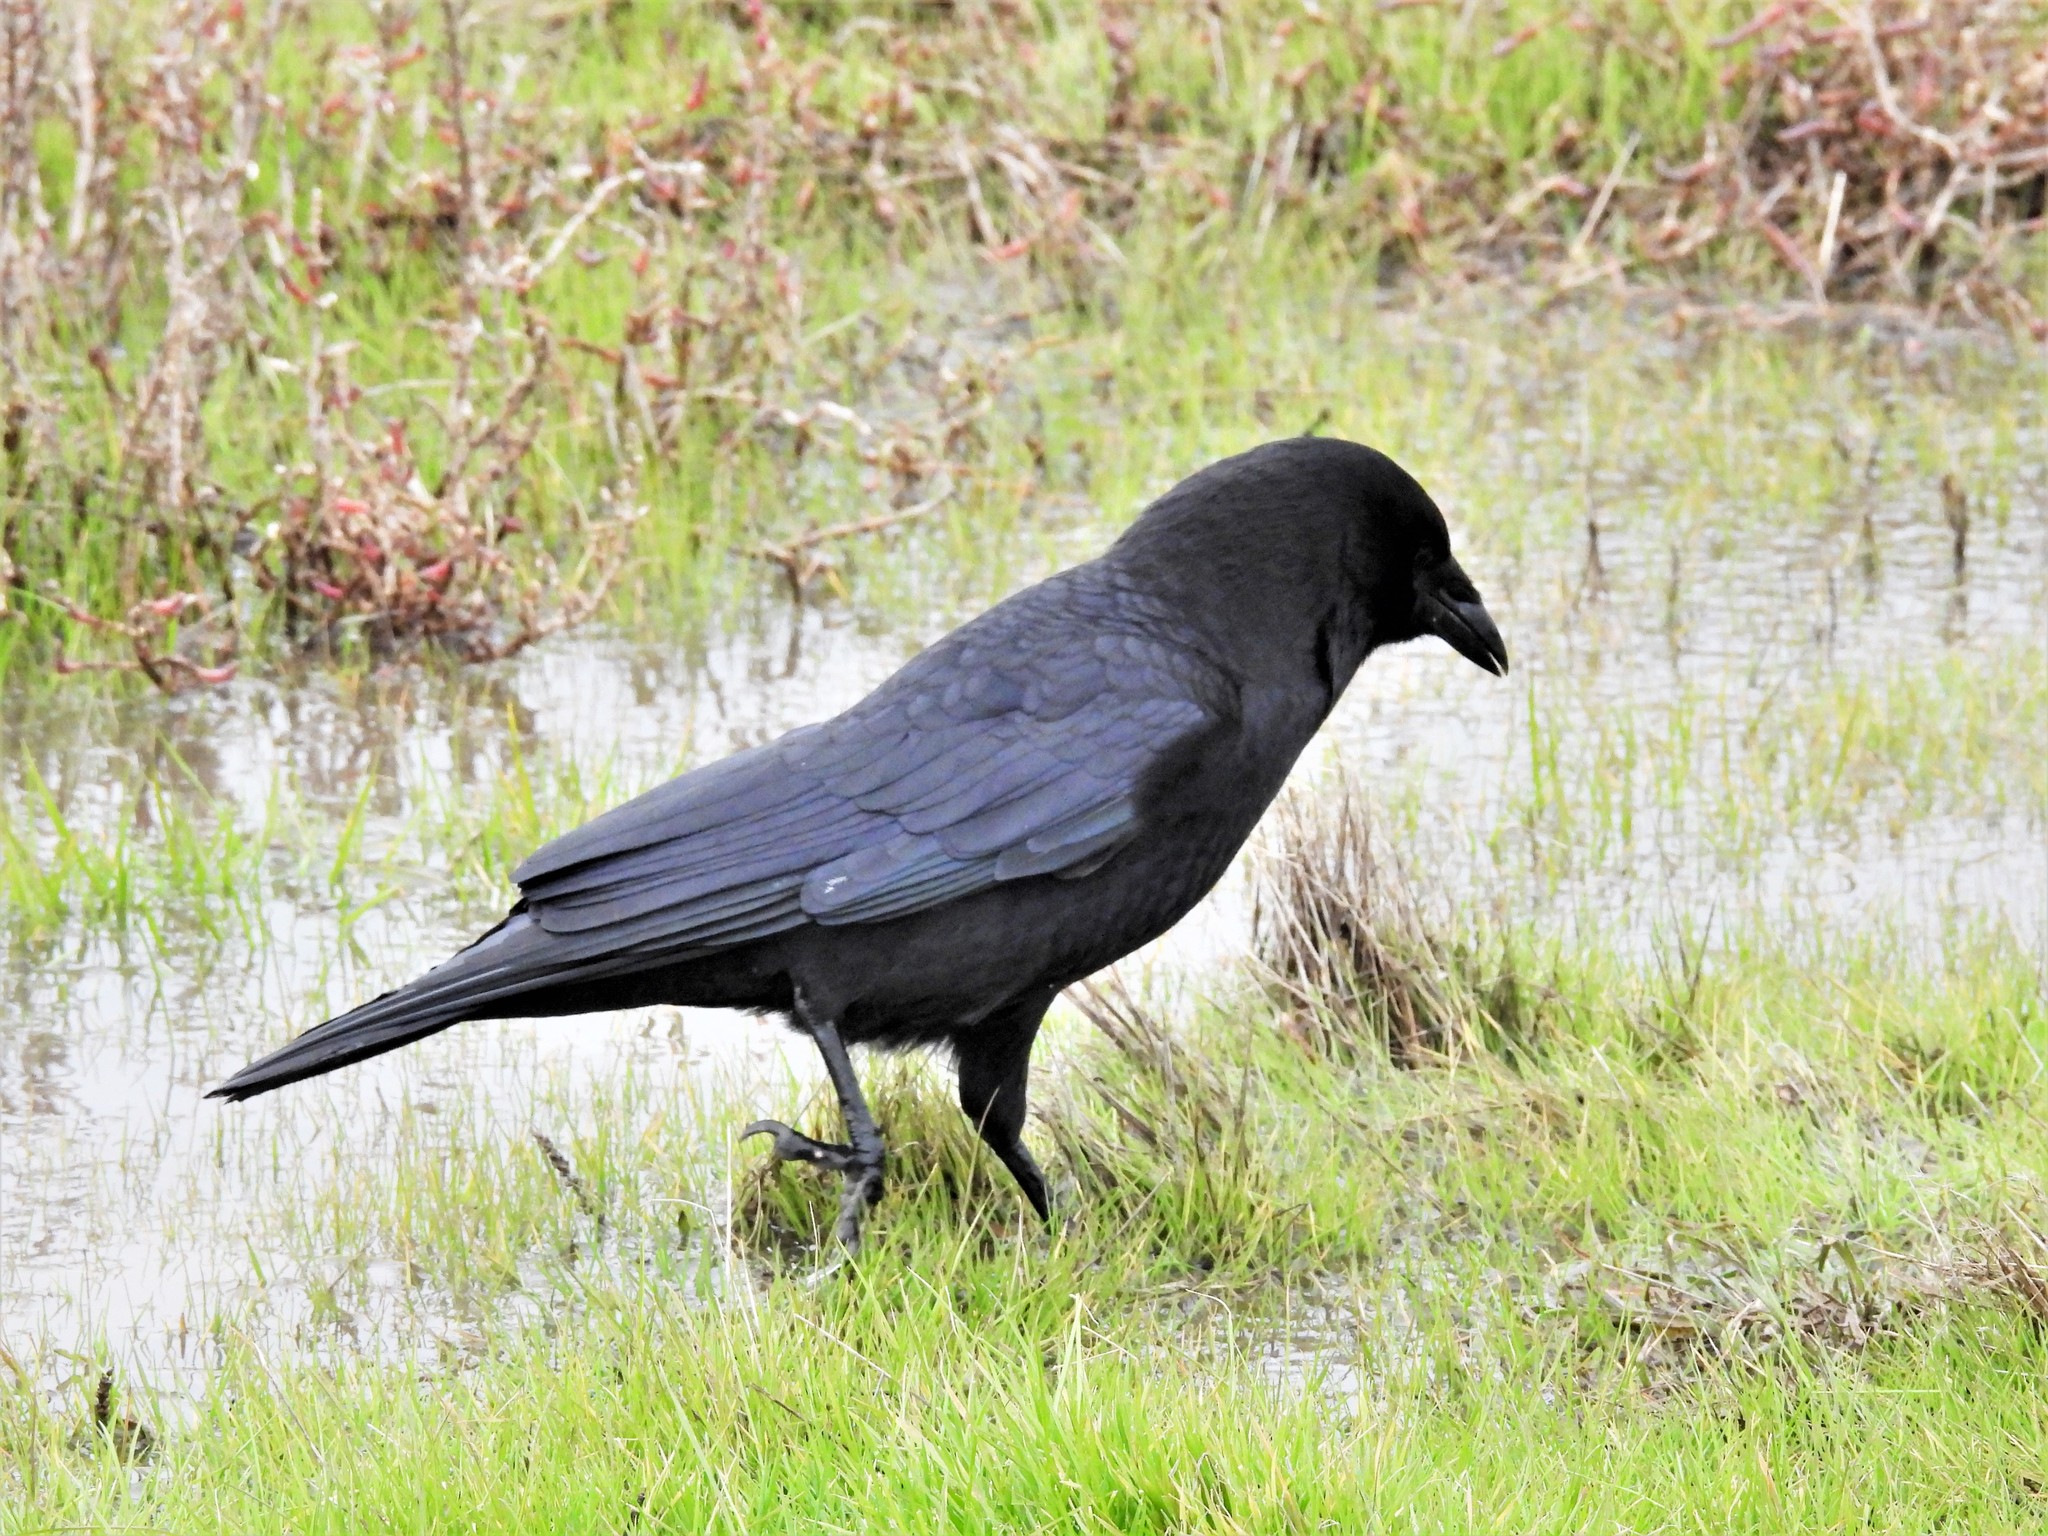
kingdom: Animalia
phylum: Chordata
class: Aves
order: Passeriformes
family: Corvidae
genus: Corvus
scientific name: Corvus brachyrhynchos
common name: American crow
